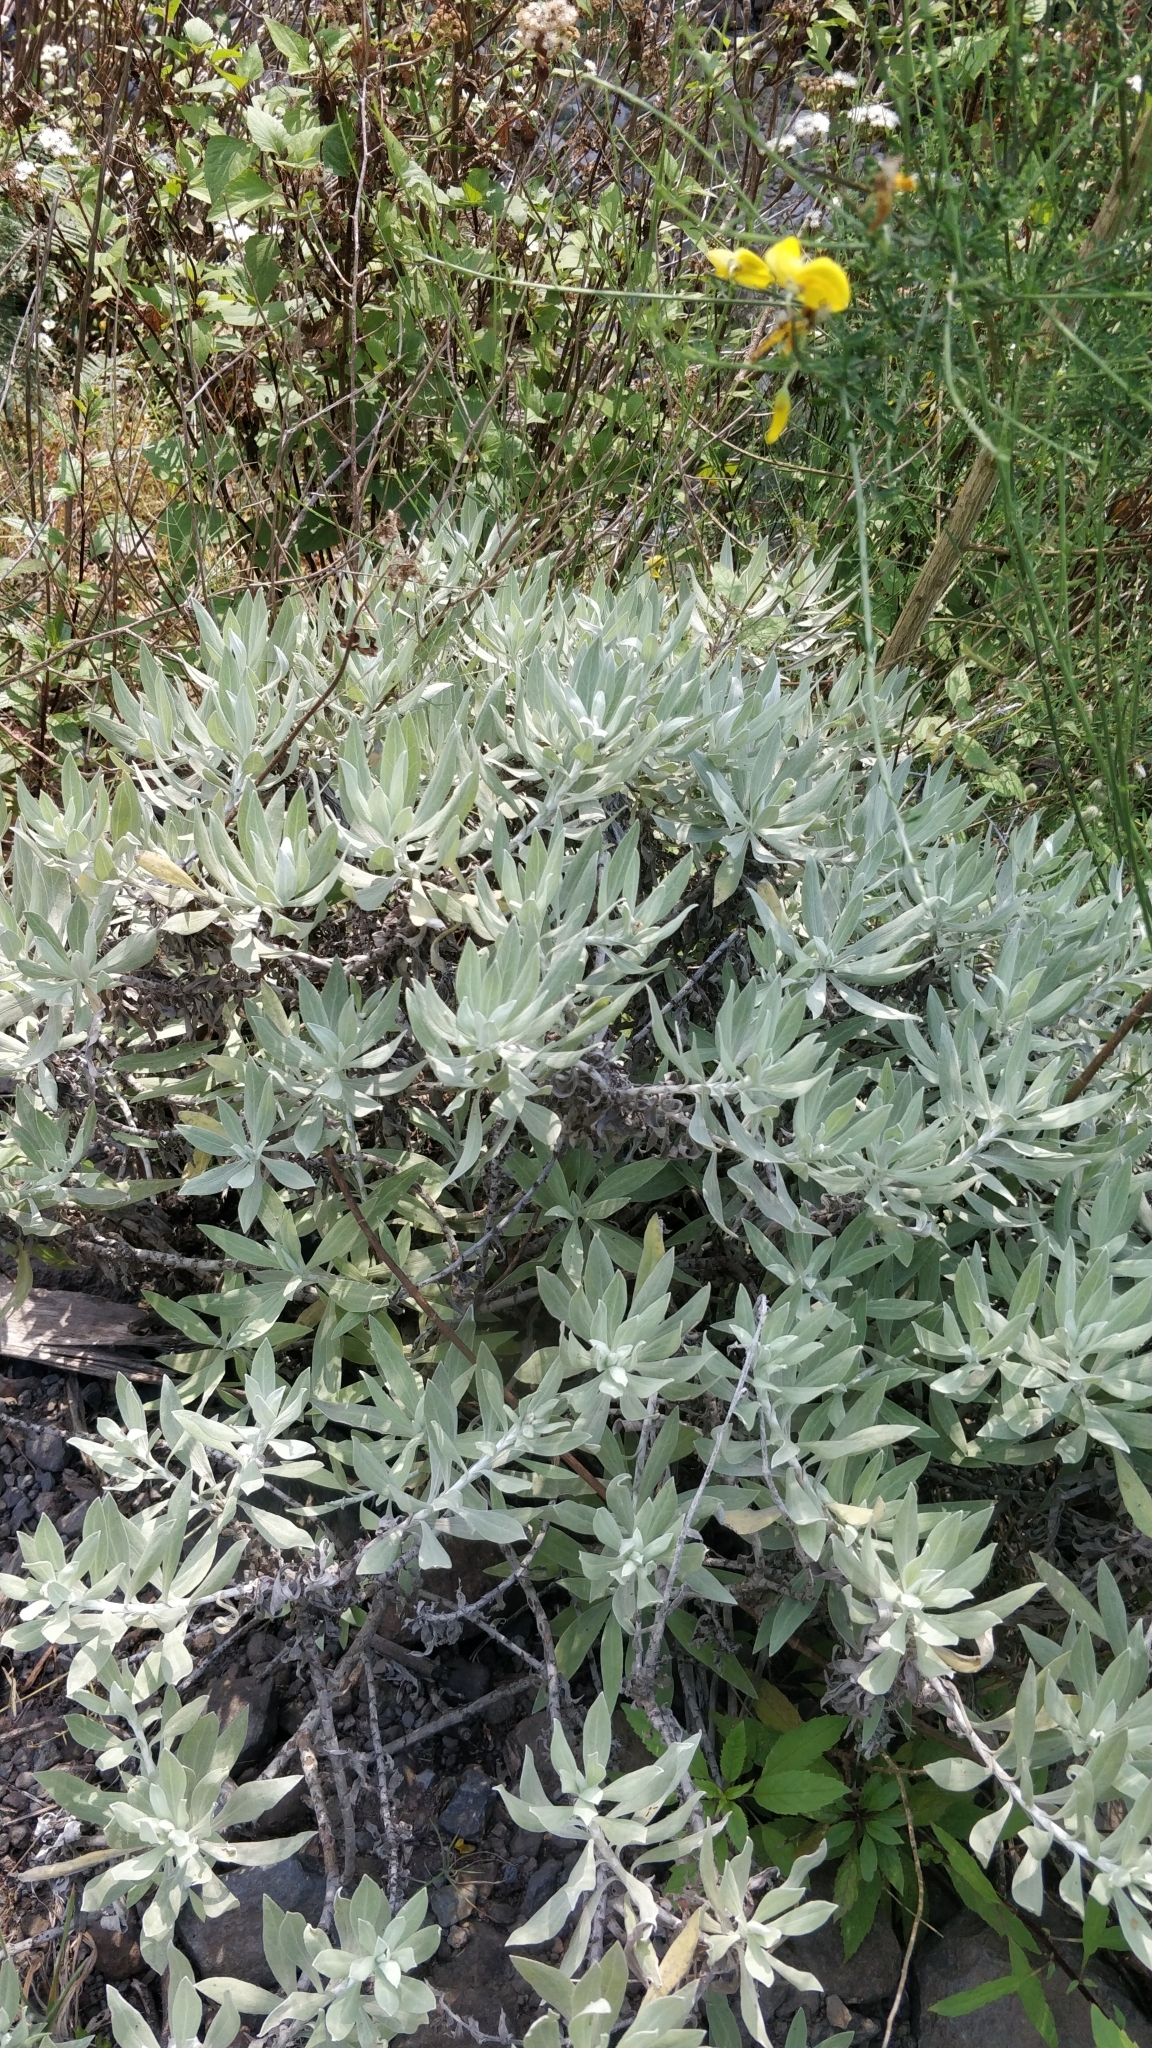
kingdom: Plantae
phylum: Tracheophyta
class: Magnoliopsida
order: Asterales
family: Asteraceae
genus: Helichrysum
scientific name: Helichrysum melaleucum
